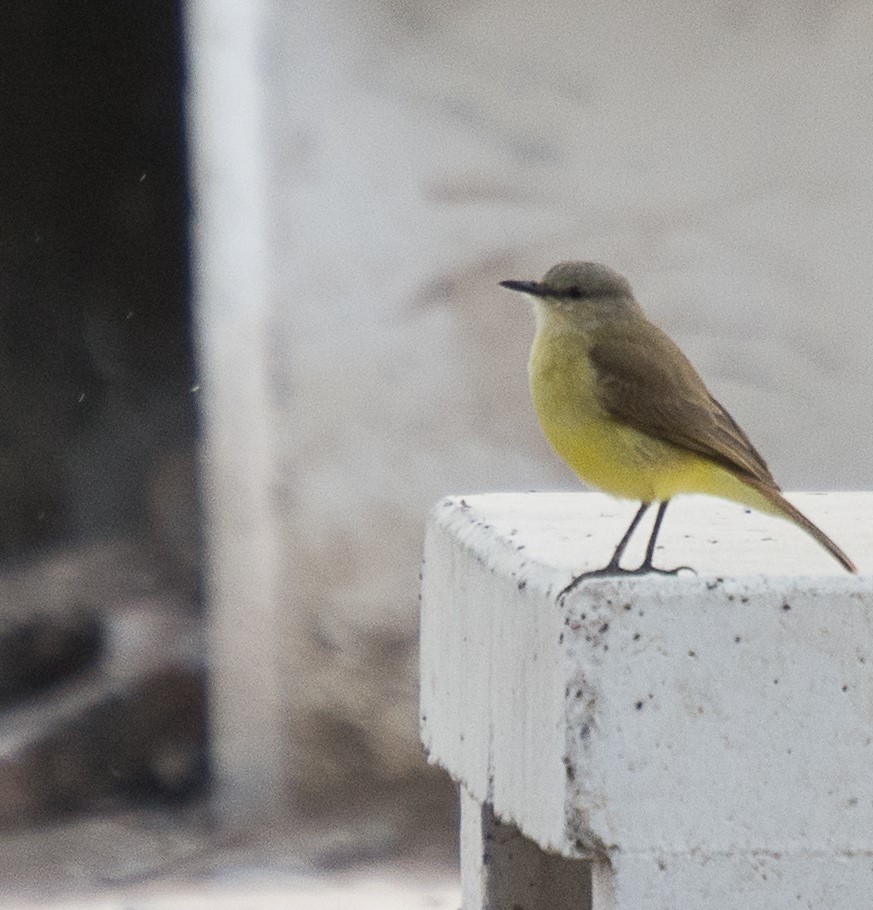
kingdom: Animalia
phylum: Chordata
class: Aves
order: Passeriformes
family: Tyrannidae
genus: Machetornis
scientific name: Machetornis rixosa
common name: Cattle tyrant
